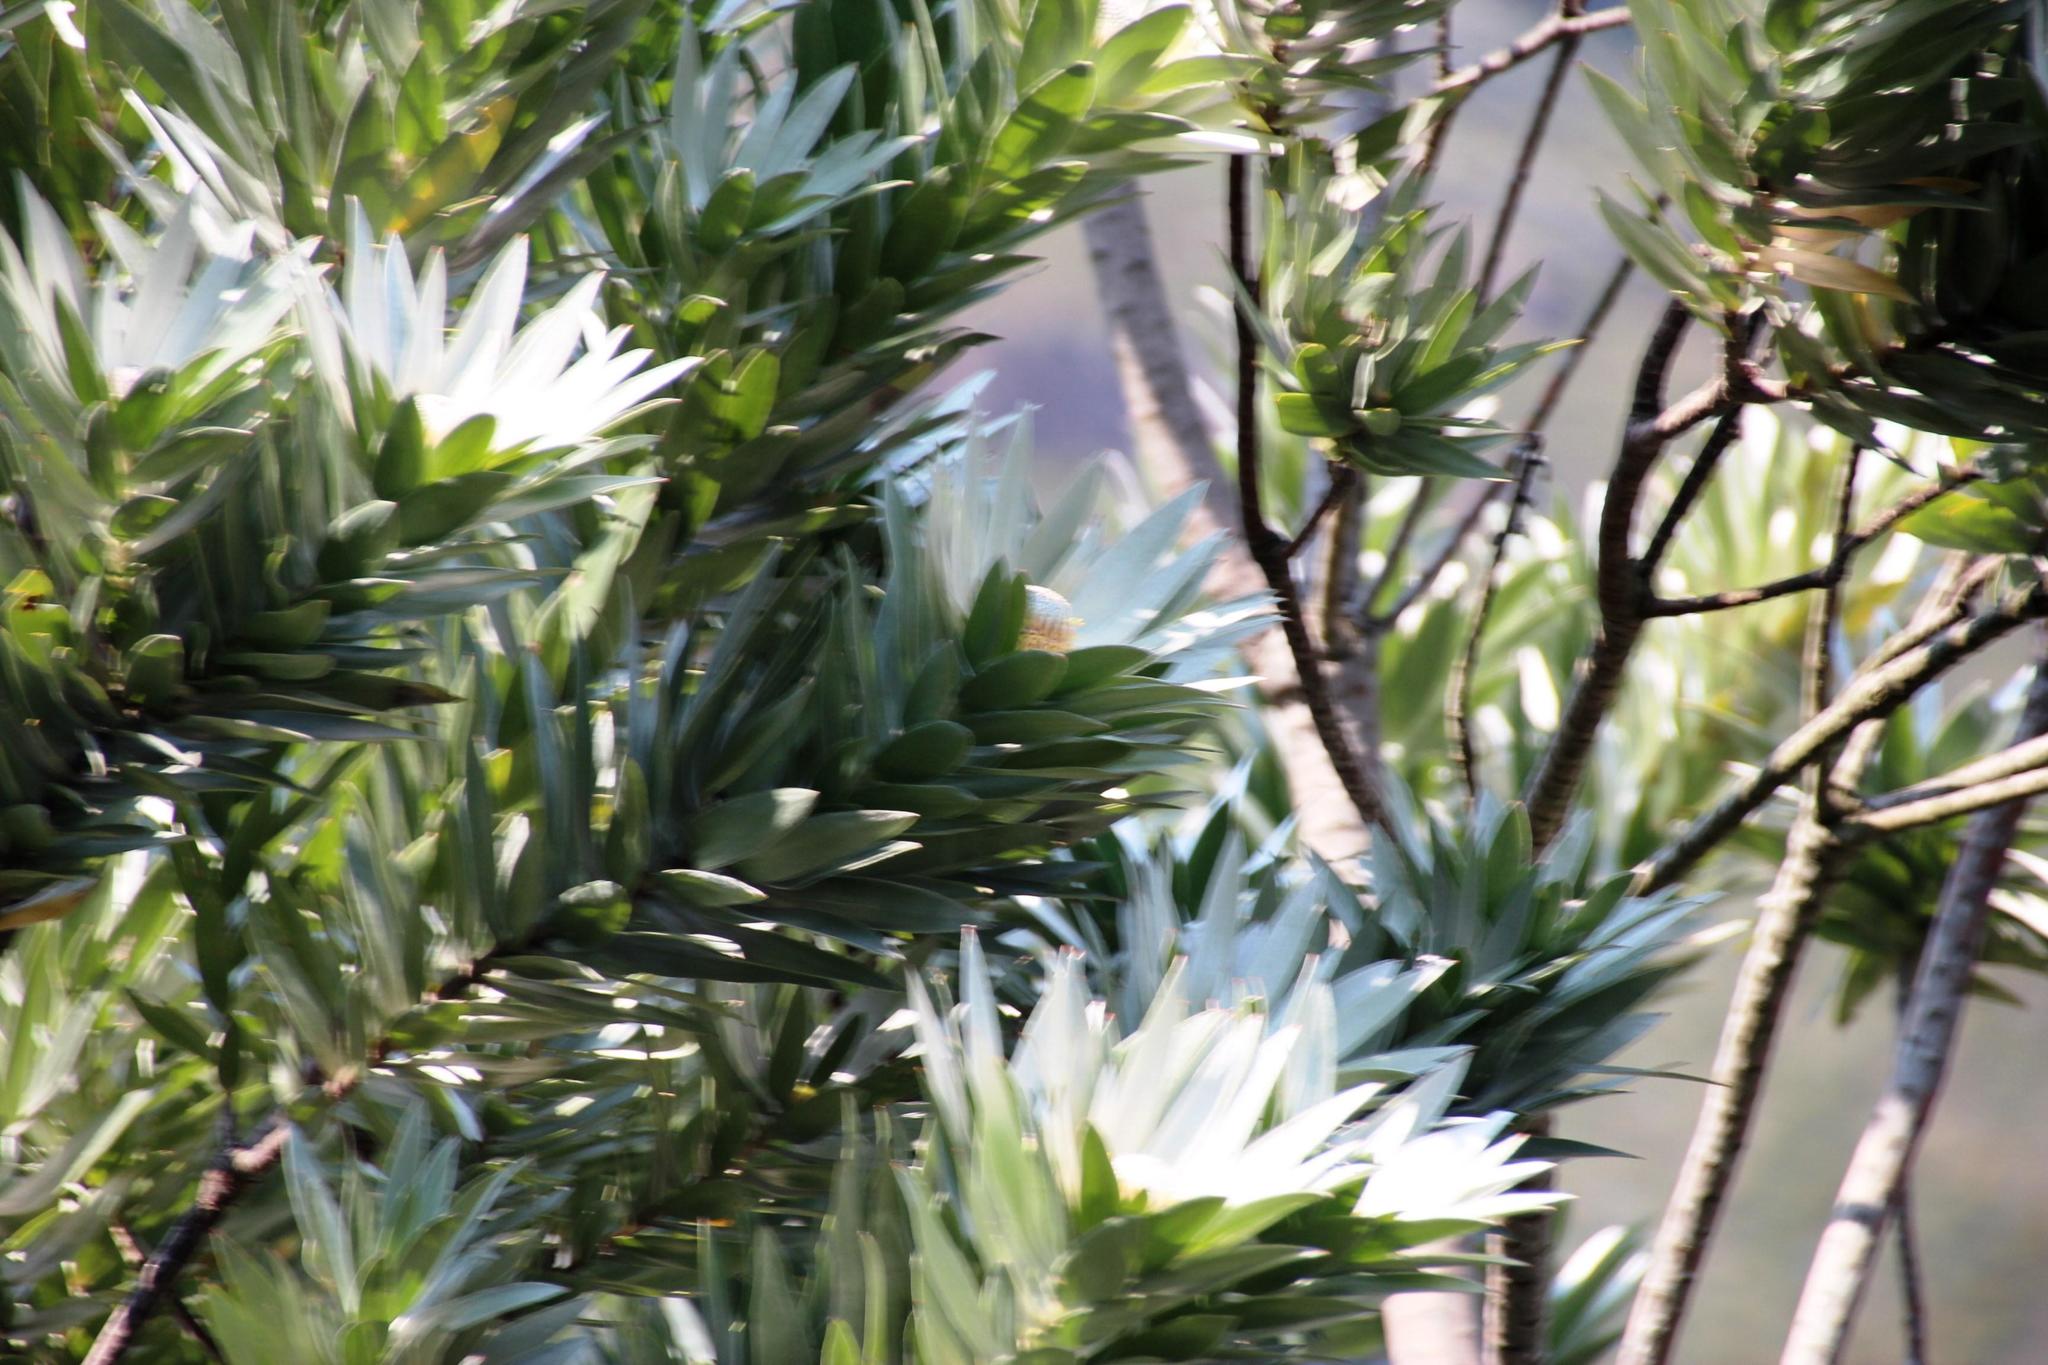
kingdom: Plantae
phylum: Tracheophyta
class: Magnoliopsida
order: Proteales
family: Proteaceae
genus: Leucadendron
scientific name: Leucadendron argenteum
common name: Cape silver tree
